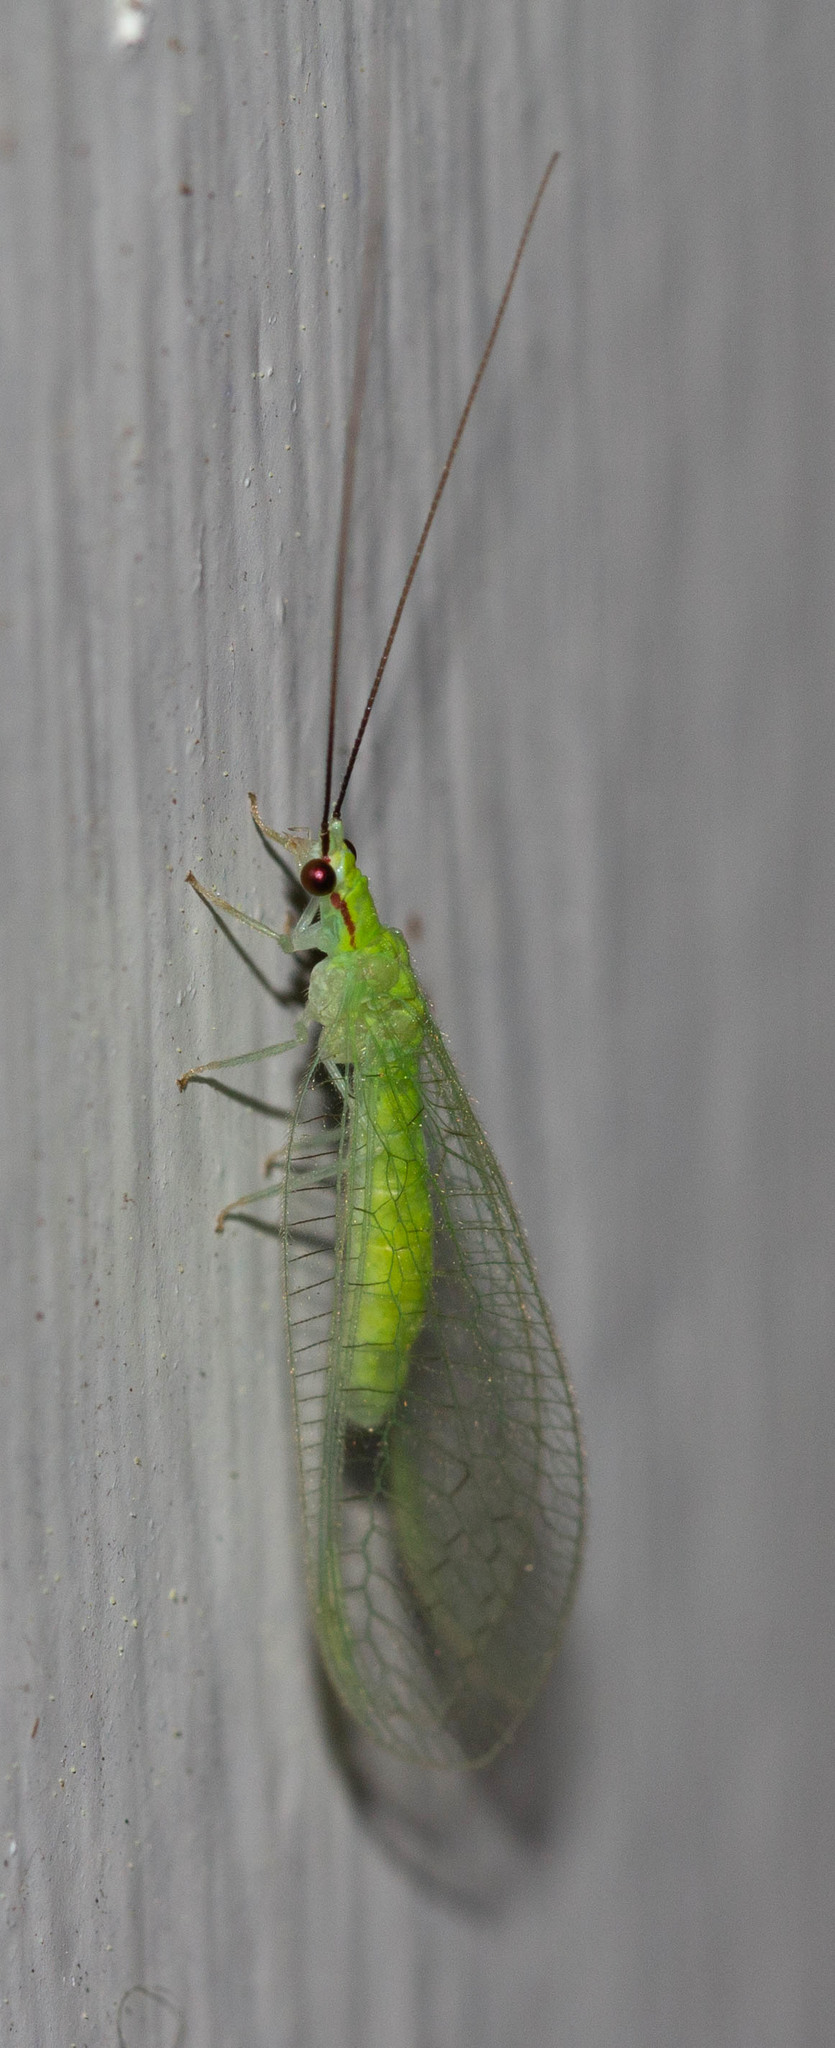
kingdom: Animalia
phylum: Arthropoda
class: Insecta
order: Neuroptera
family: Chrysopidae
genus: Ceraeochrysa
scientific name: Ceraeochrysa lineaticornis
